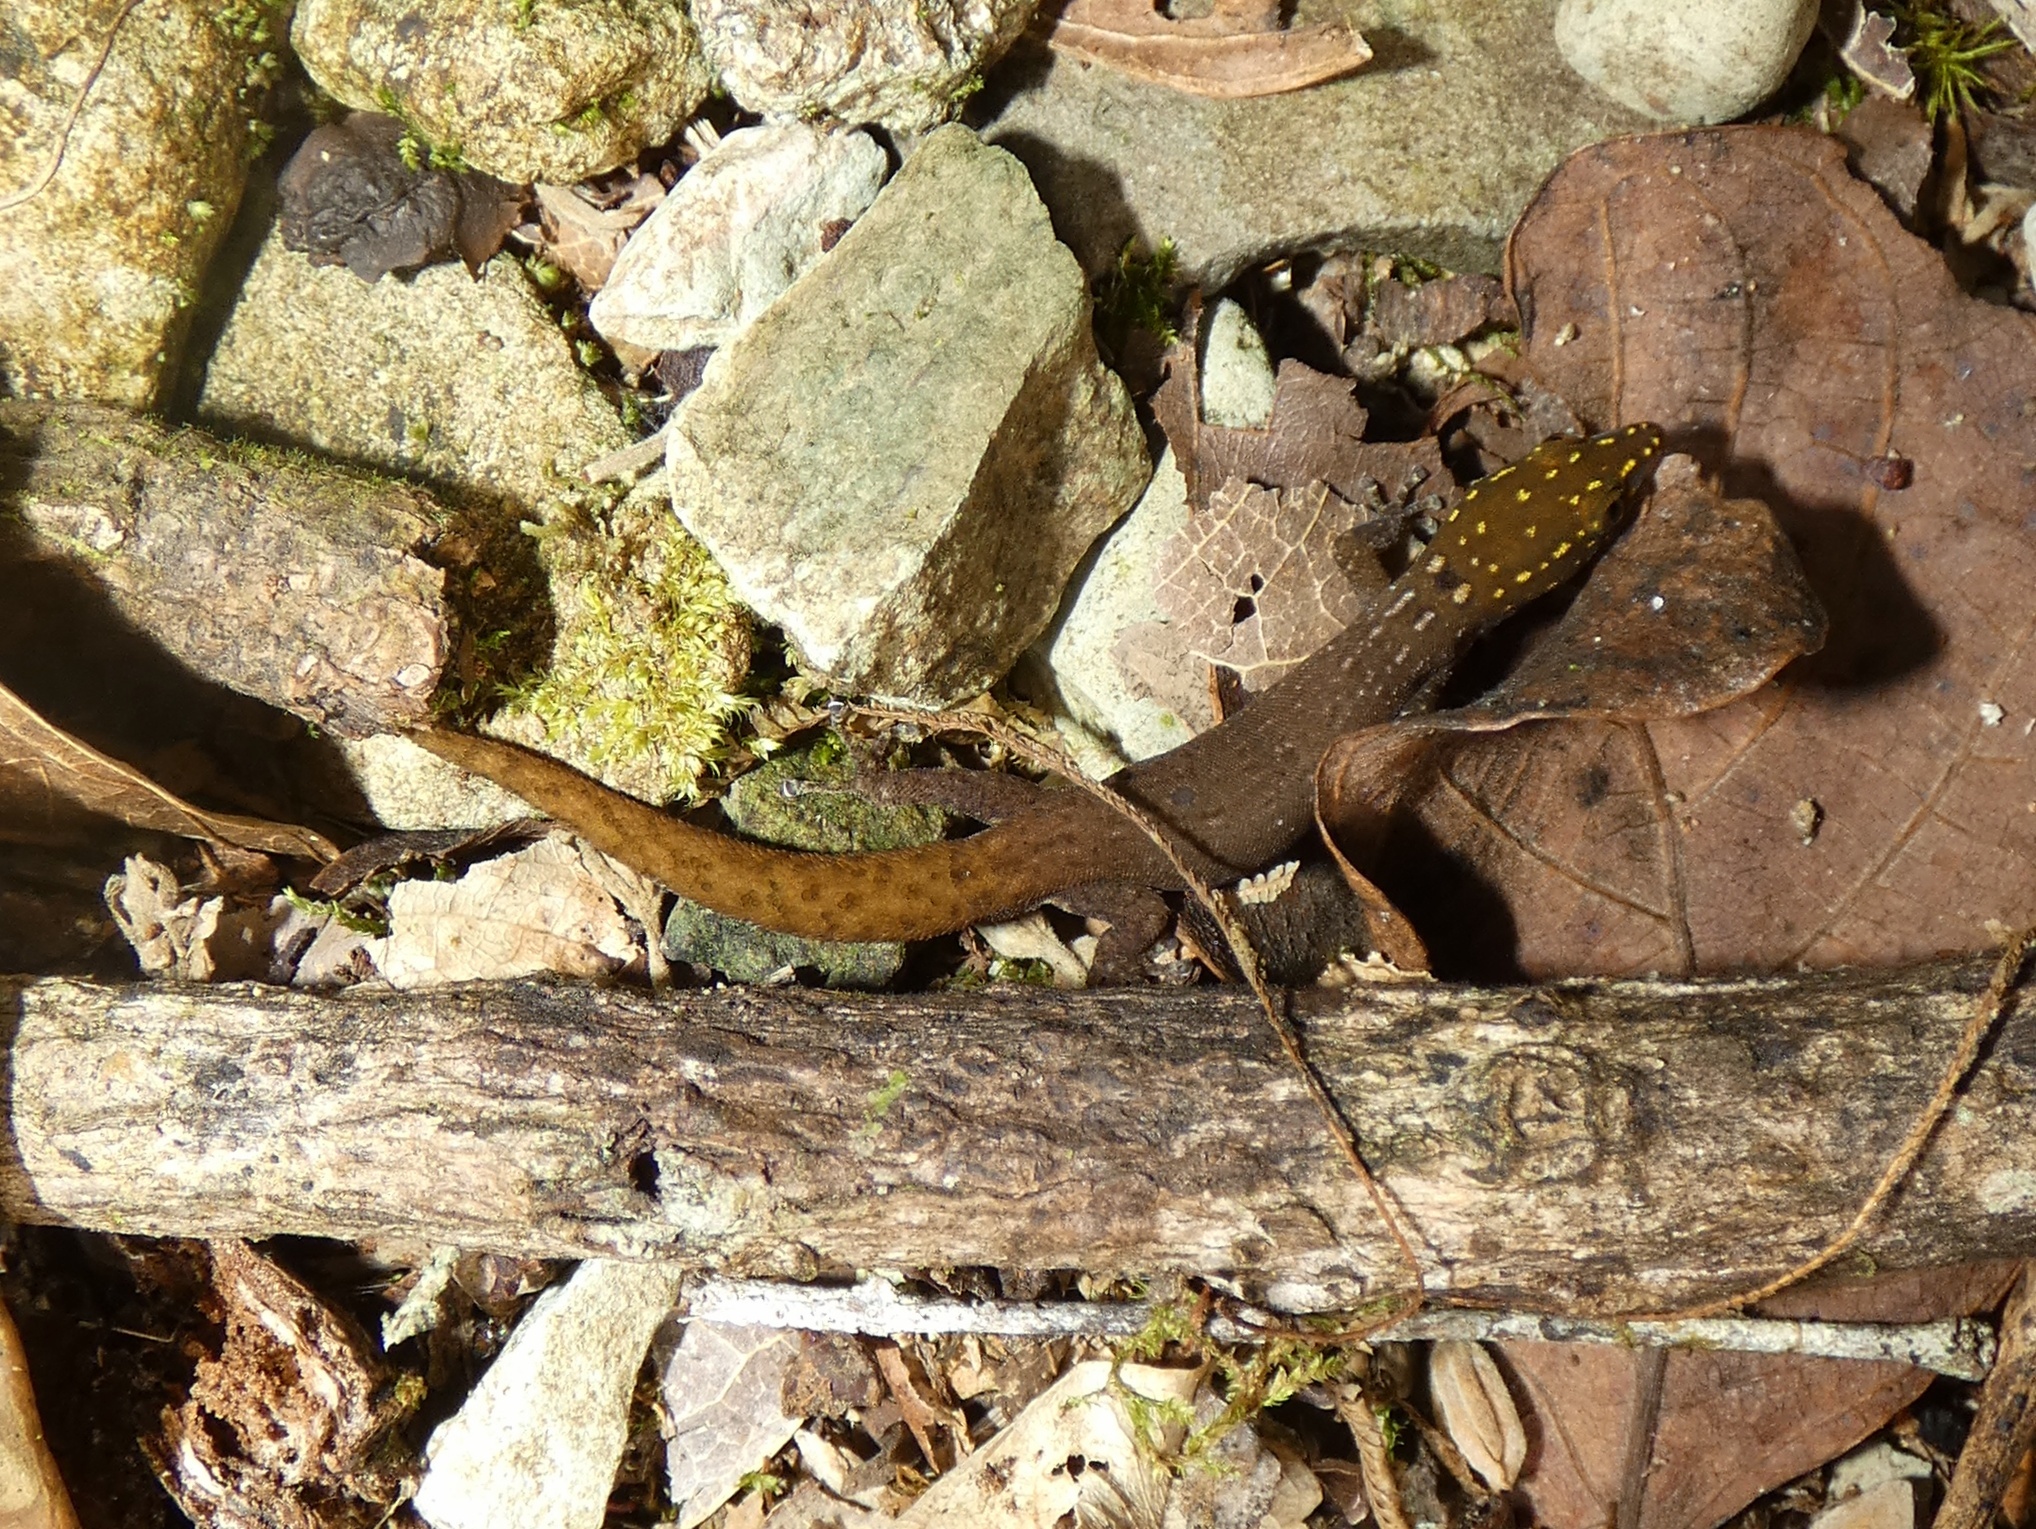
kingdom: Animalia
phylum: Chordata
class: Squamata
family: Sphaerodactylidae
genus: Sphaerodactylus
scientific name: Sphaerodactylus homolepis
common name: Caribbean least gecko
